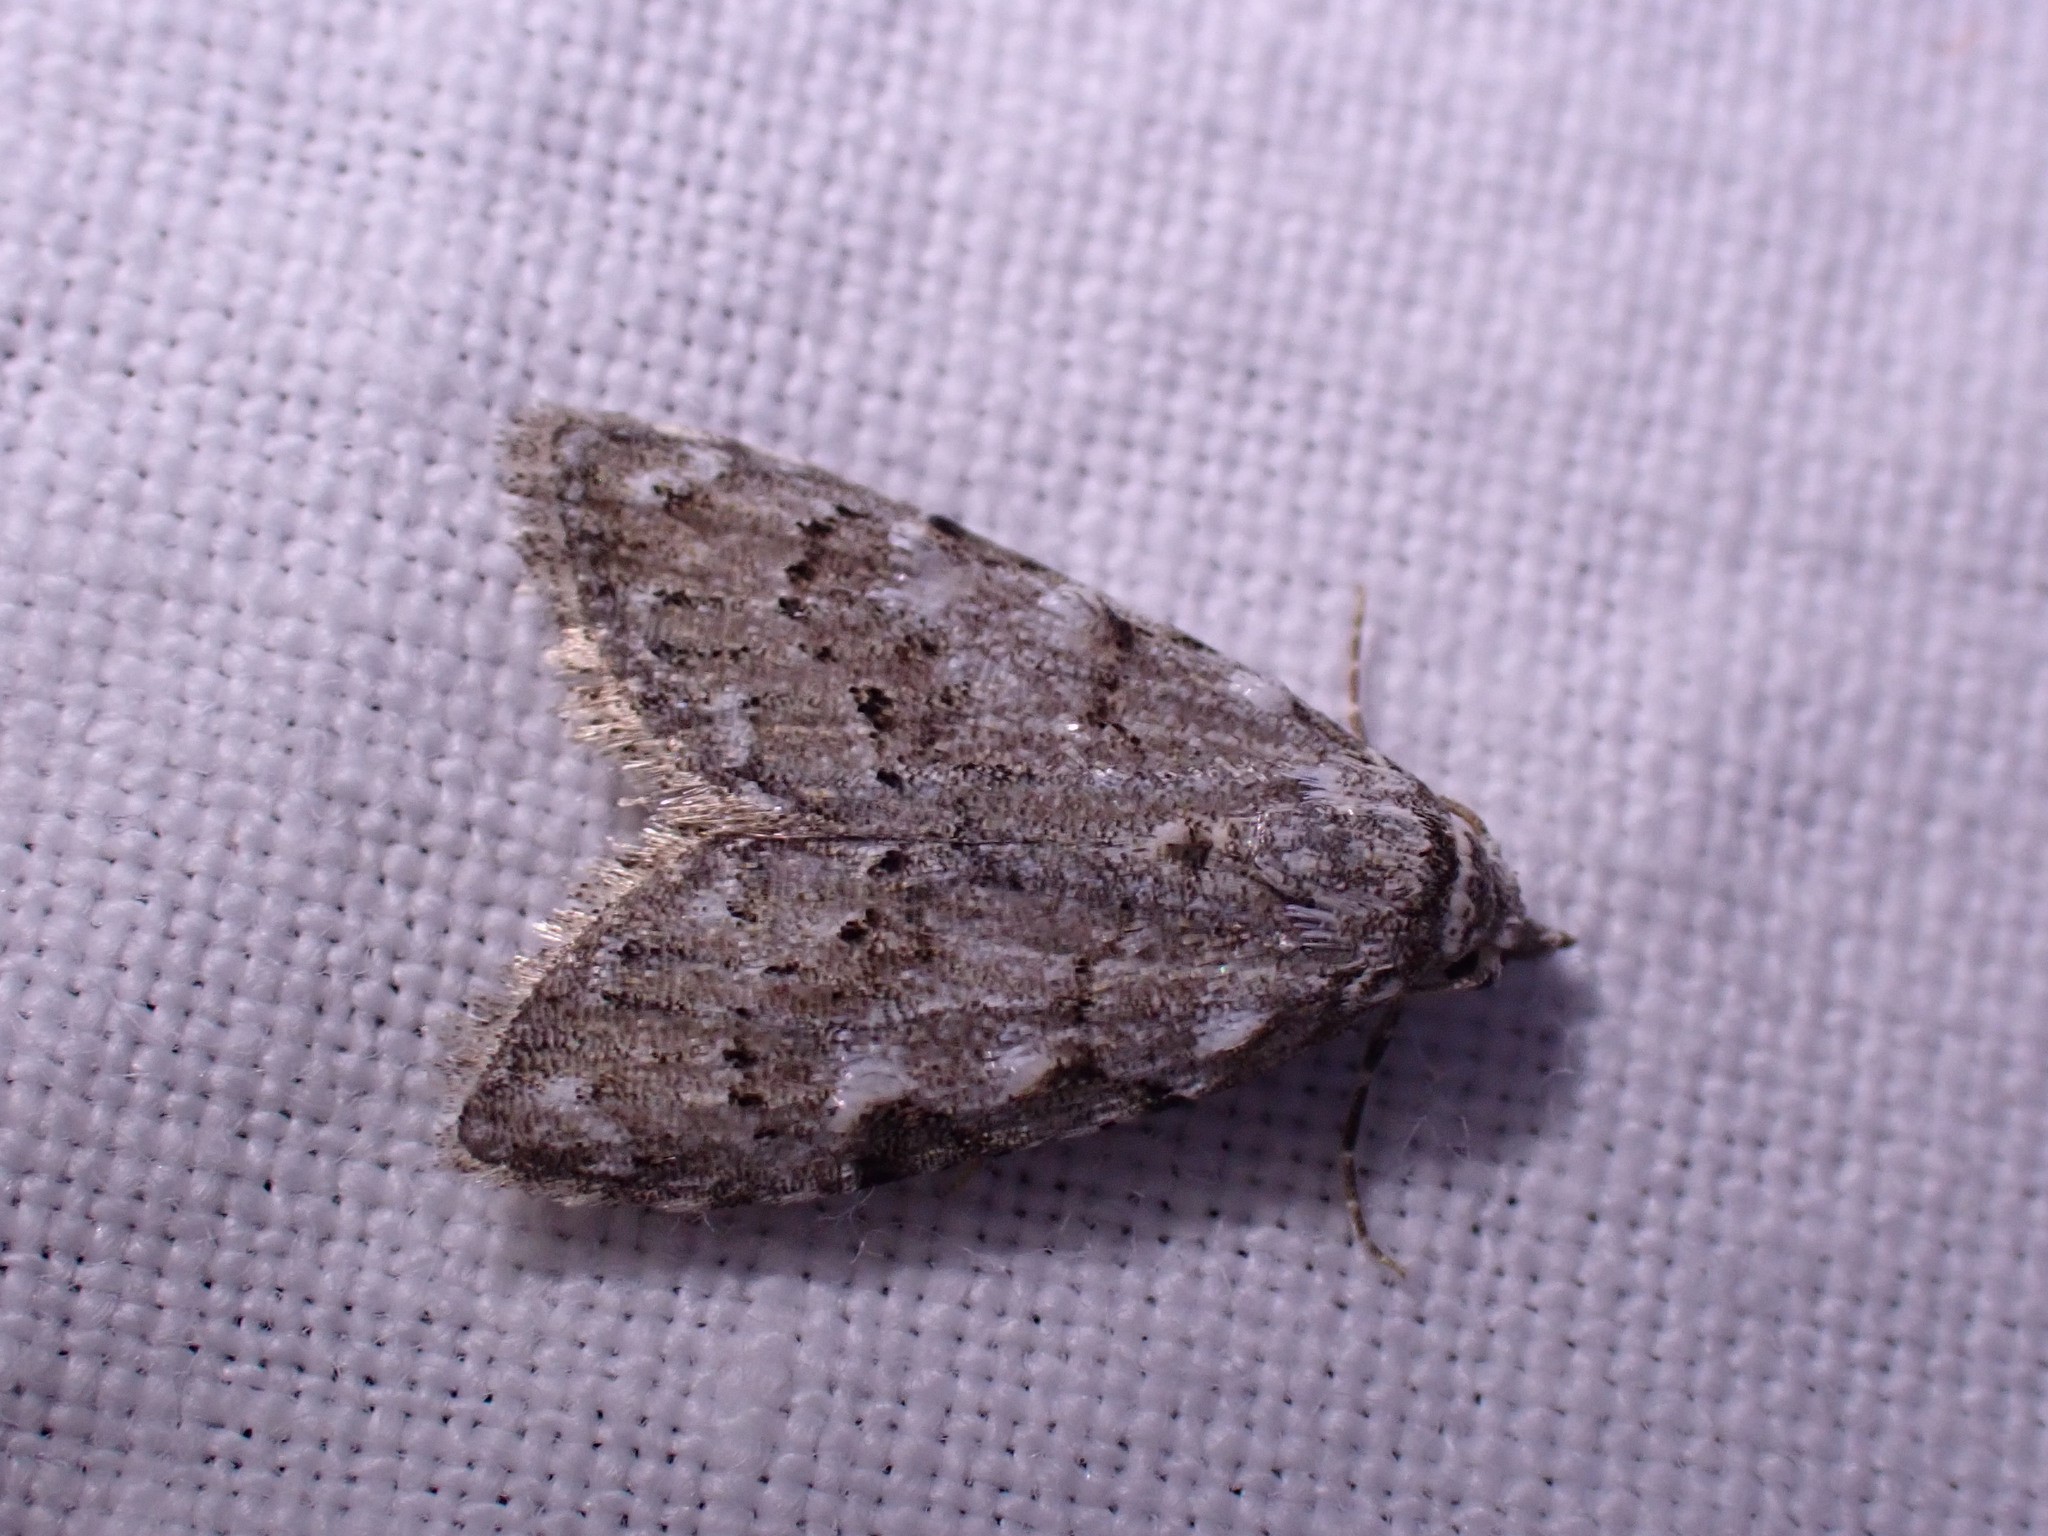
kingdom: Animalia
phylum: Arthropoda
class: Insecta
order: Lepidoptera
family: Nolidae
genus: Nola
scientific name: Nola confusalis
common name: Least black arches
